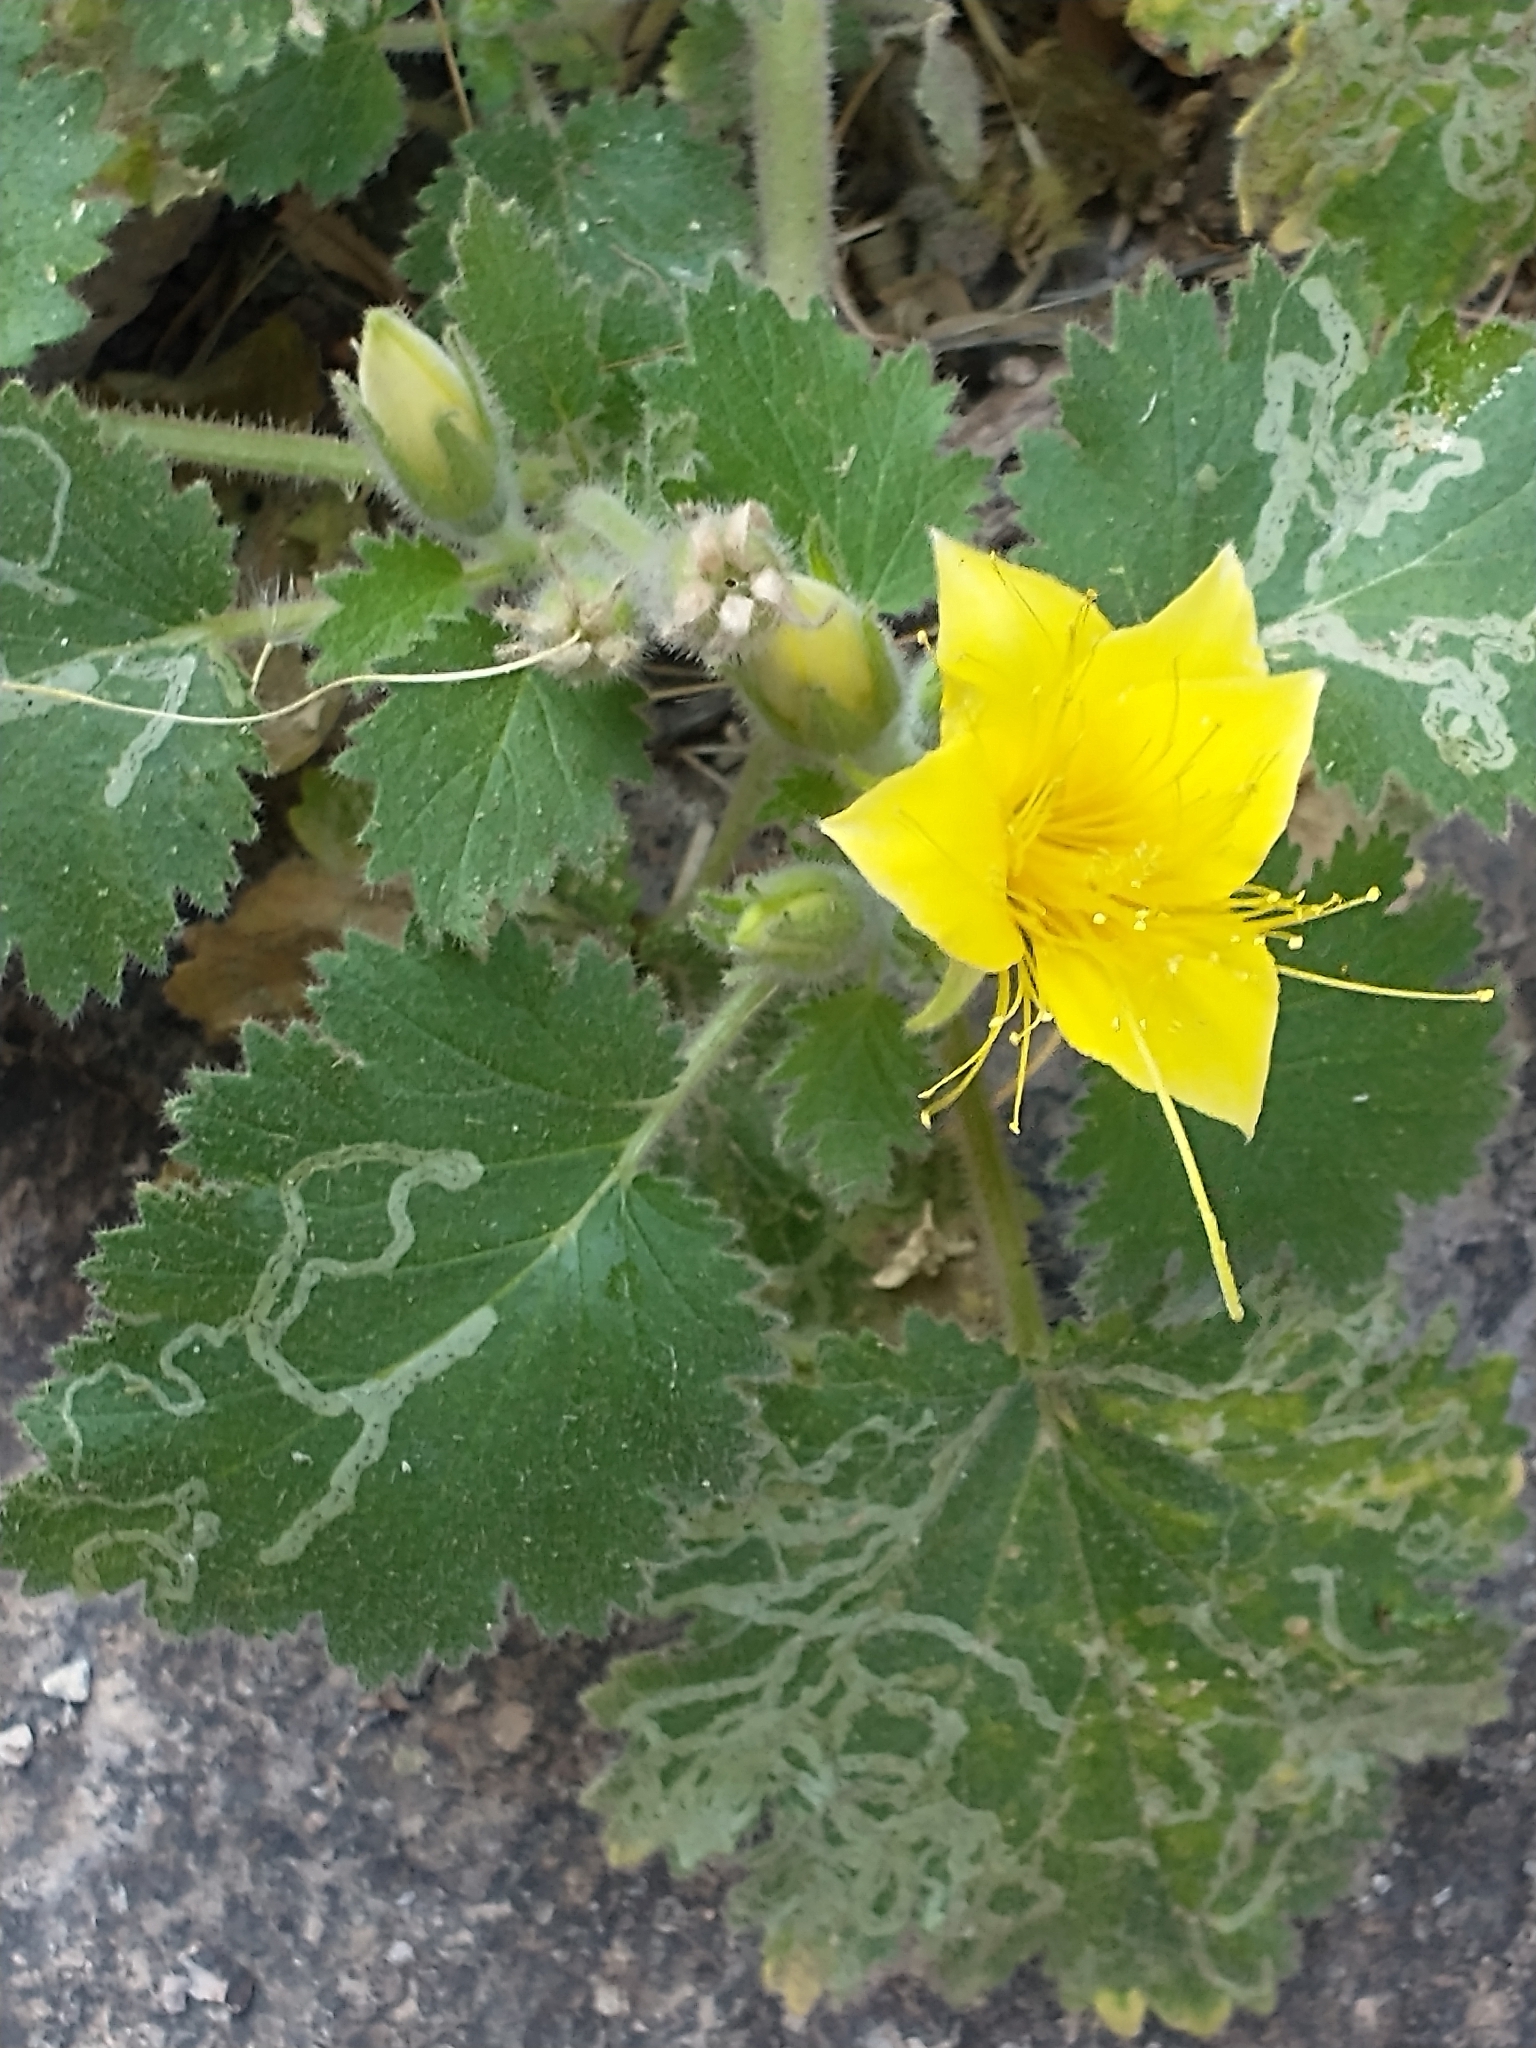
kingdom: Plantae
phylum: Tracheophyta
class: Magnoliopsida
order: Cornales
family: Loasaceae
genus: Eucnide
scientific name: Eucnide bartonioides
